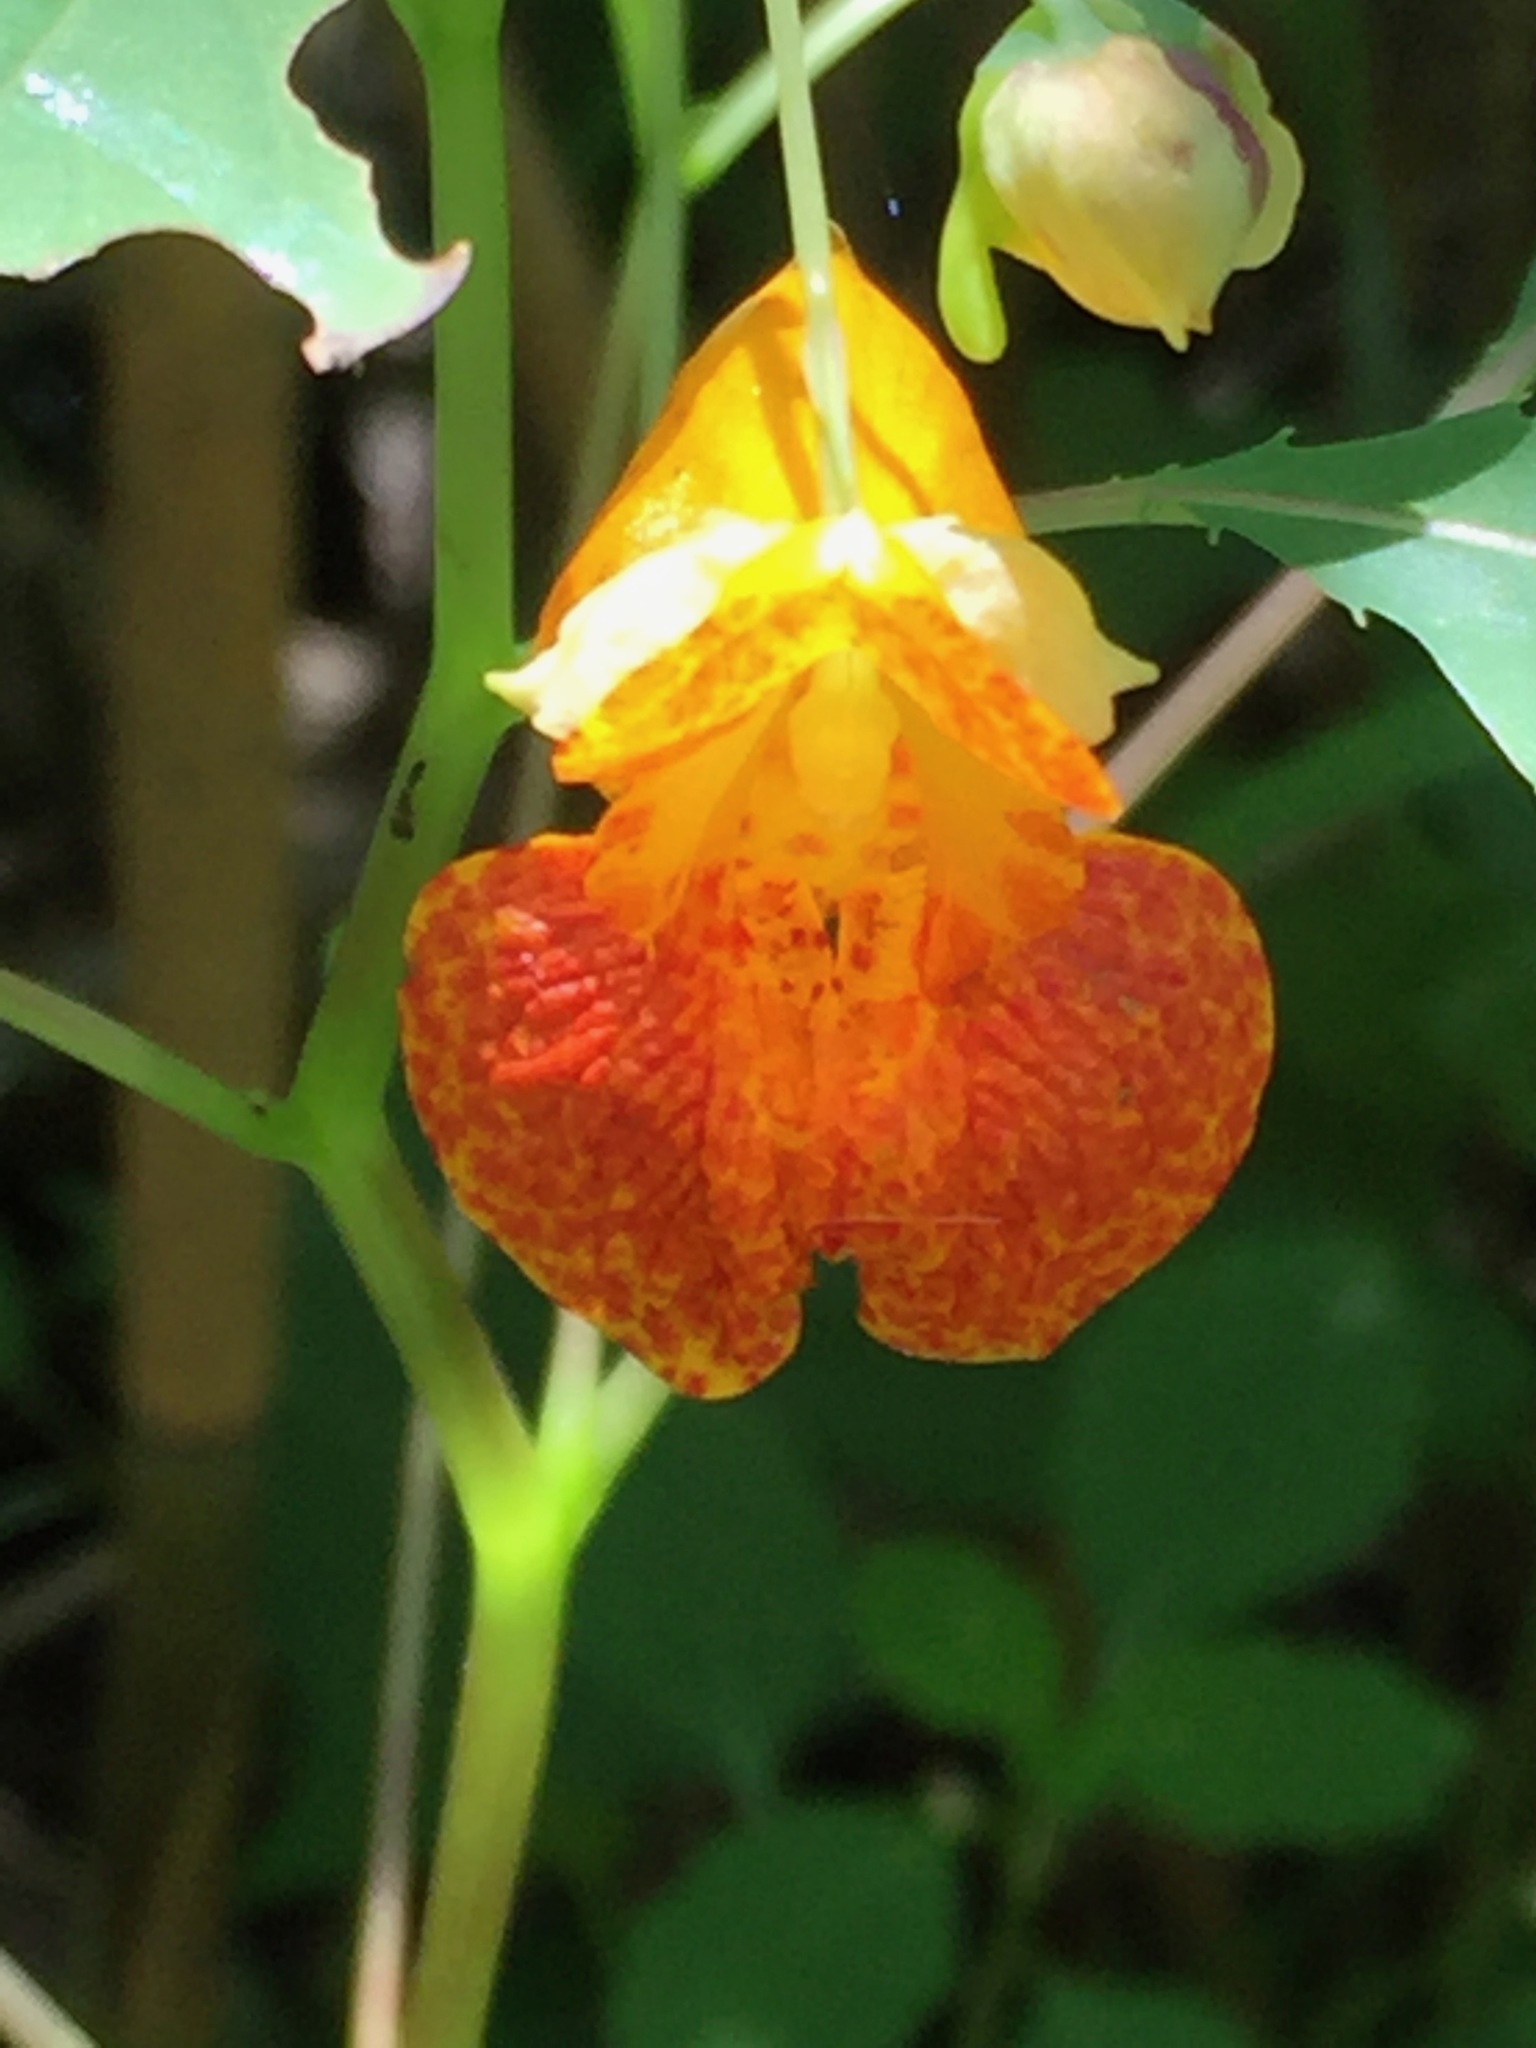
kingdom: Plantae
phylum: Tracheophyta
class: Magnoliopsida
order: Ericales
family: Balsaminaceae
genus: Impatiens
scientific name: Impatiens capensis
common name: Orange balsam
